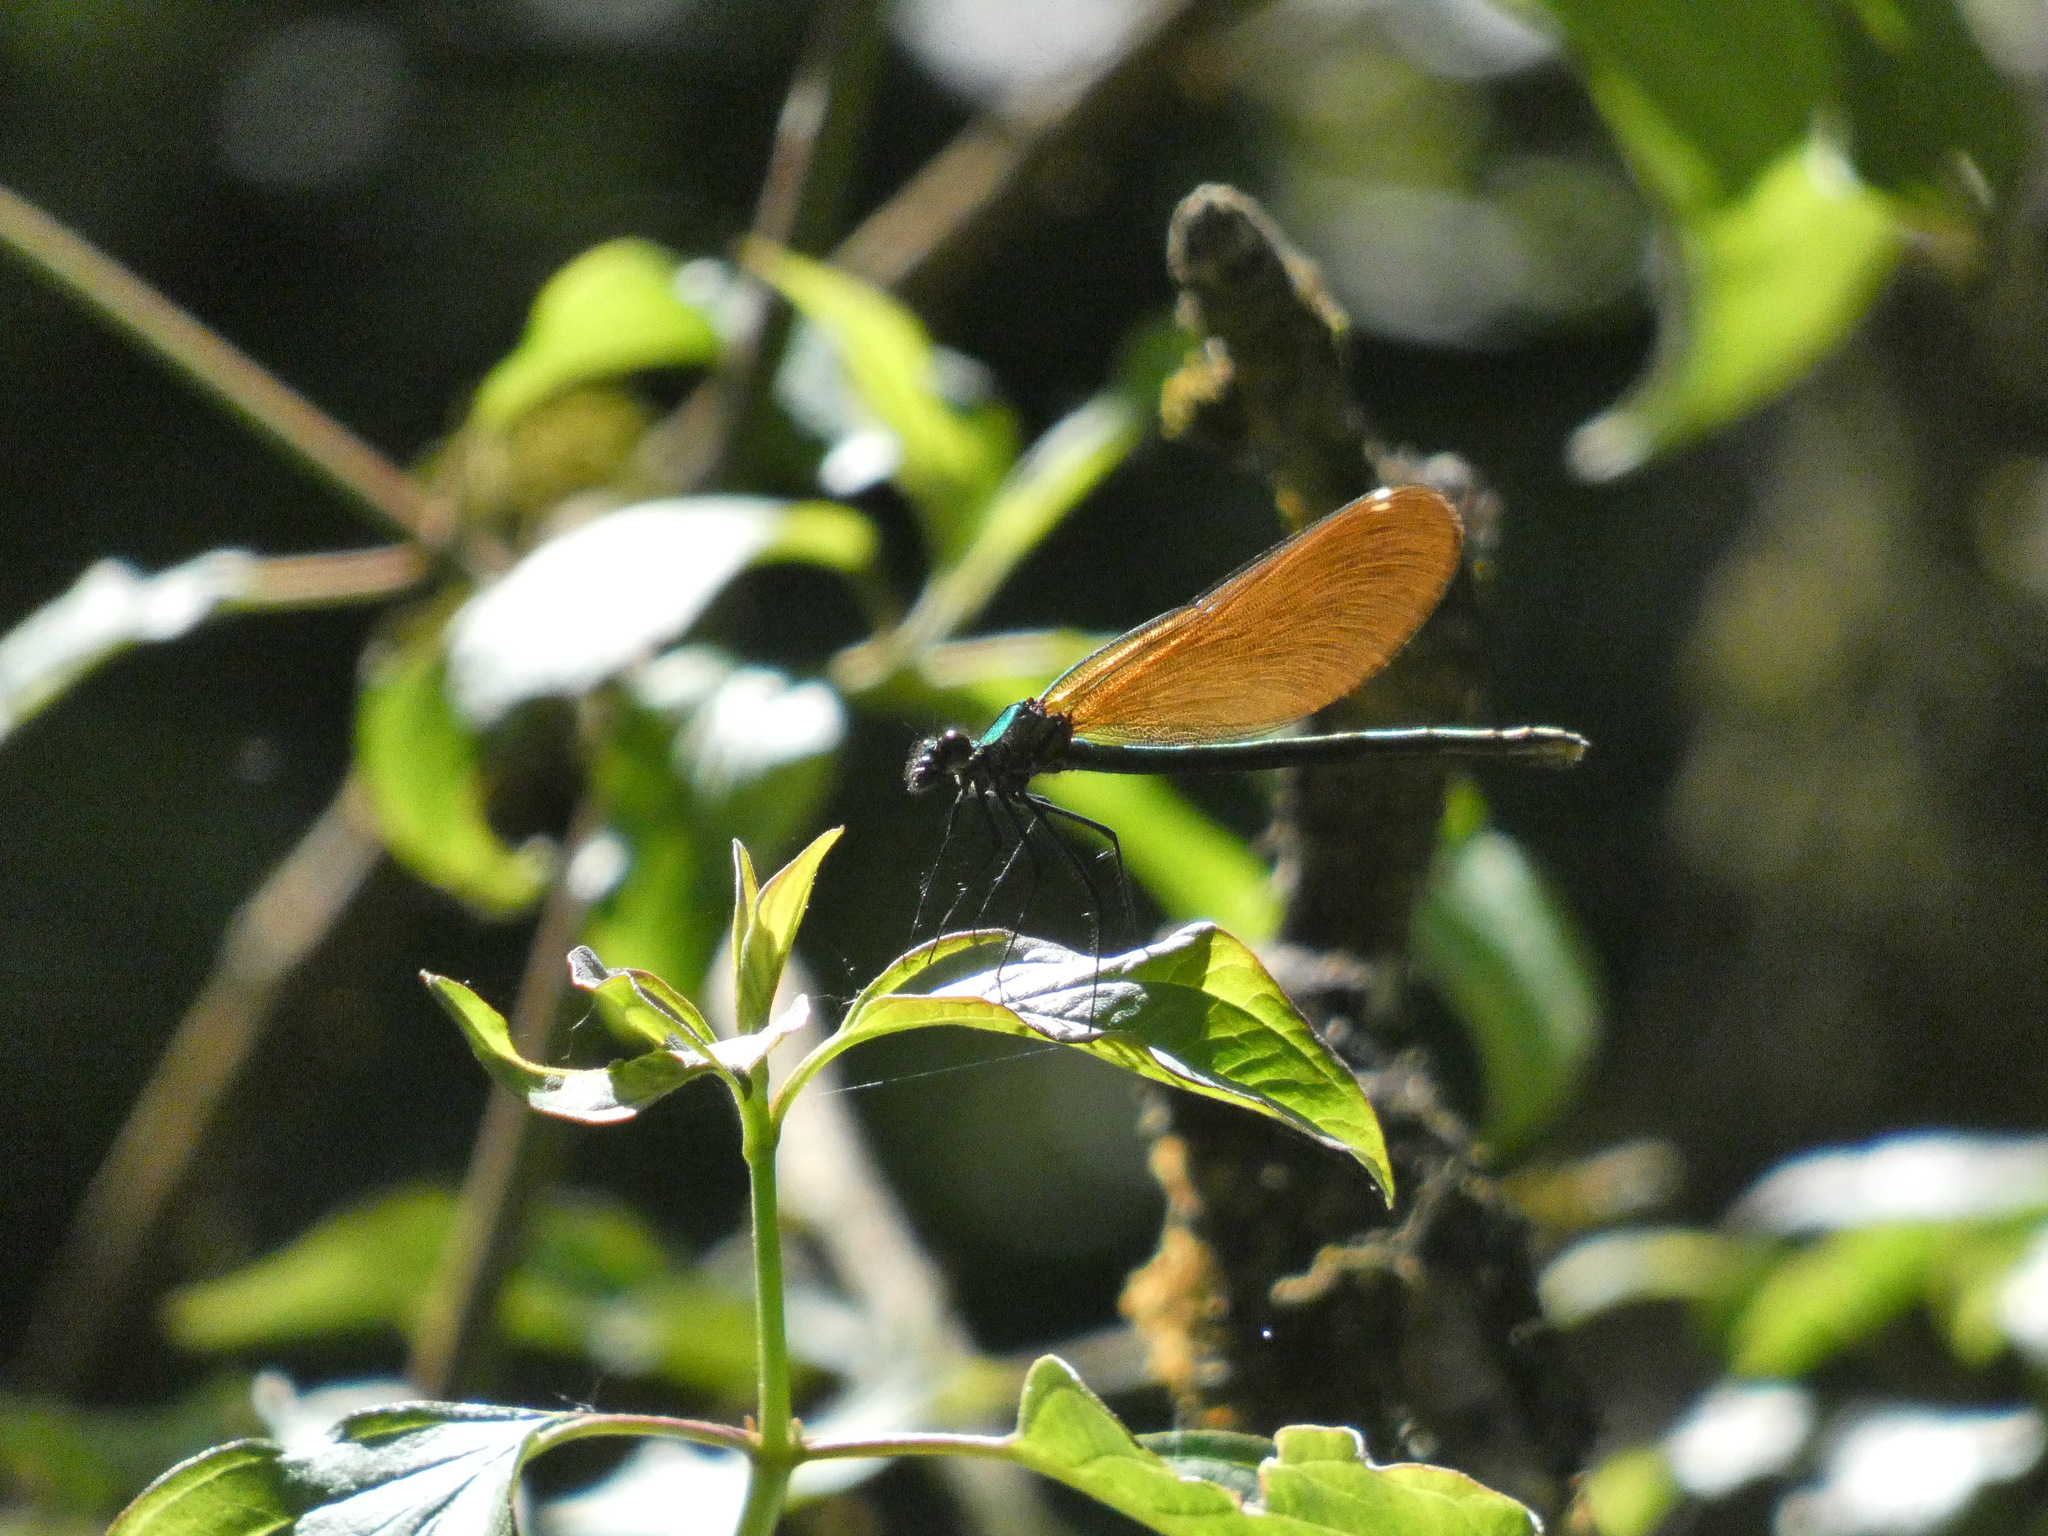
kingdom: Animalia
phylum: Arthropoda
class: Insecta
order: Odonata
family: Calopterygidae
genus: Calopteryx
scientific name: Calopteryx virgo
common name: Beautiful demoiselle
